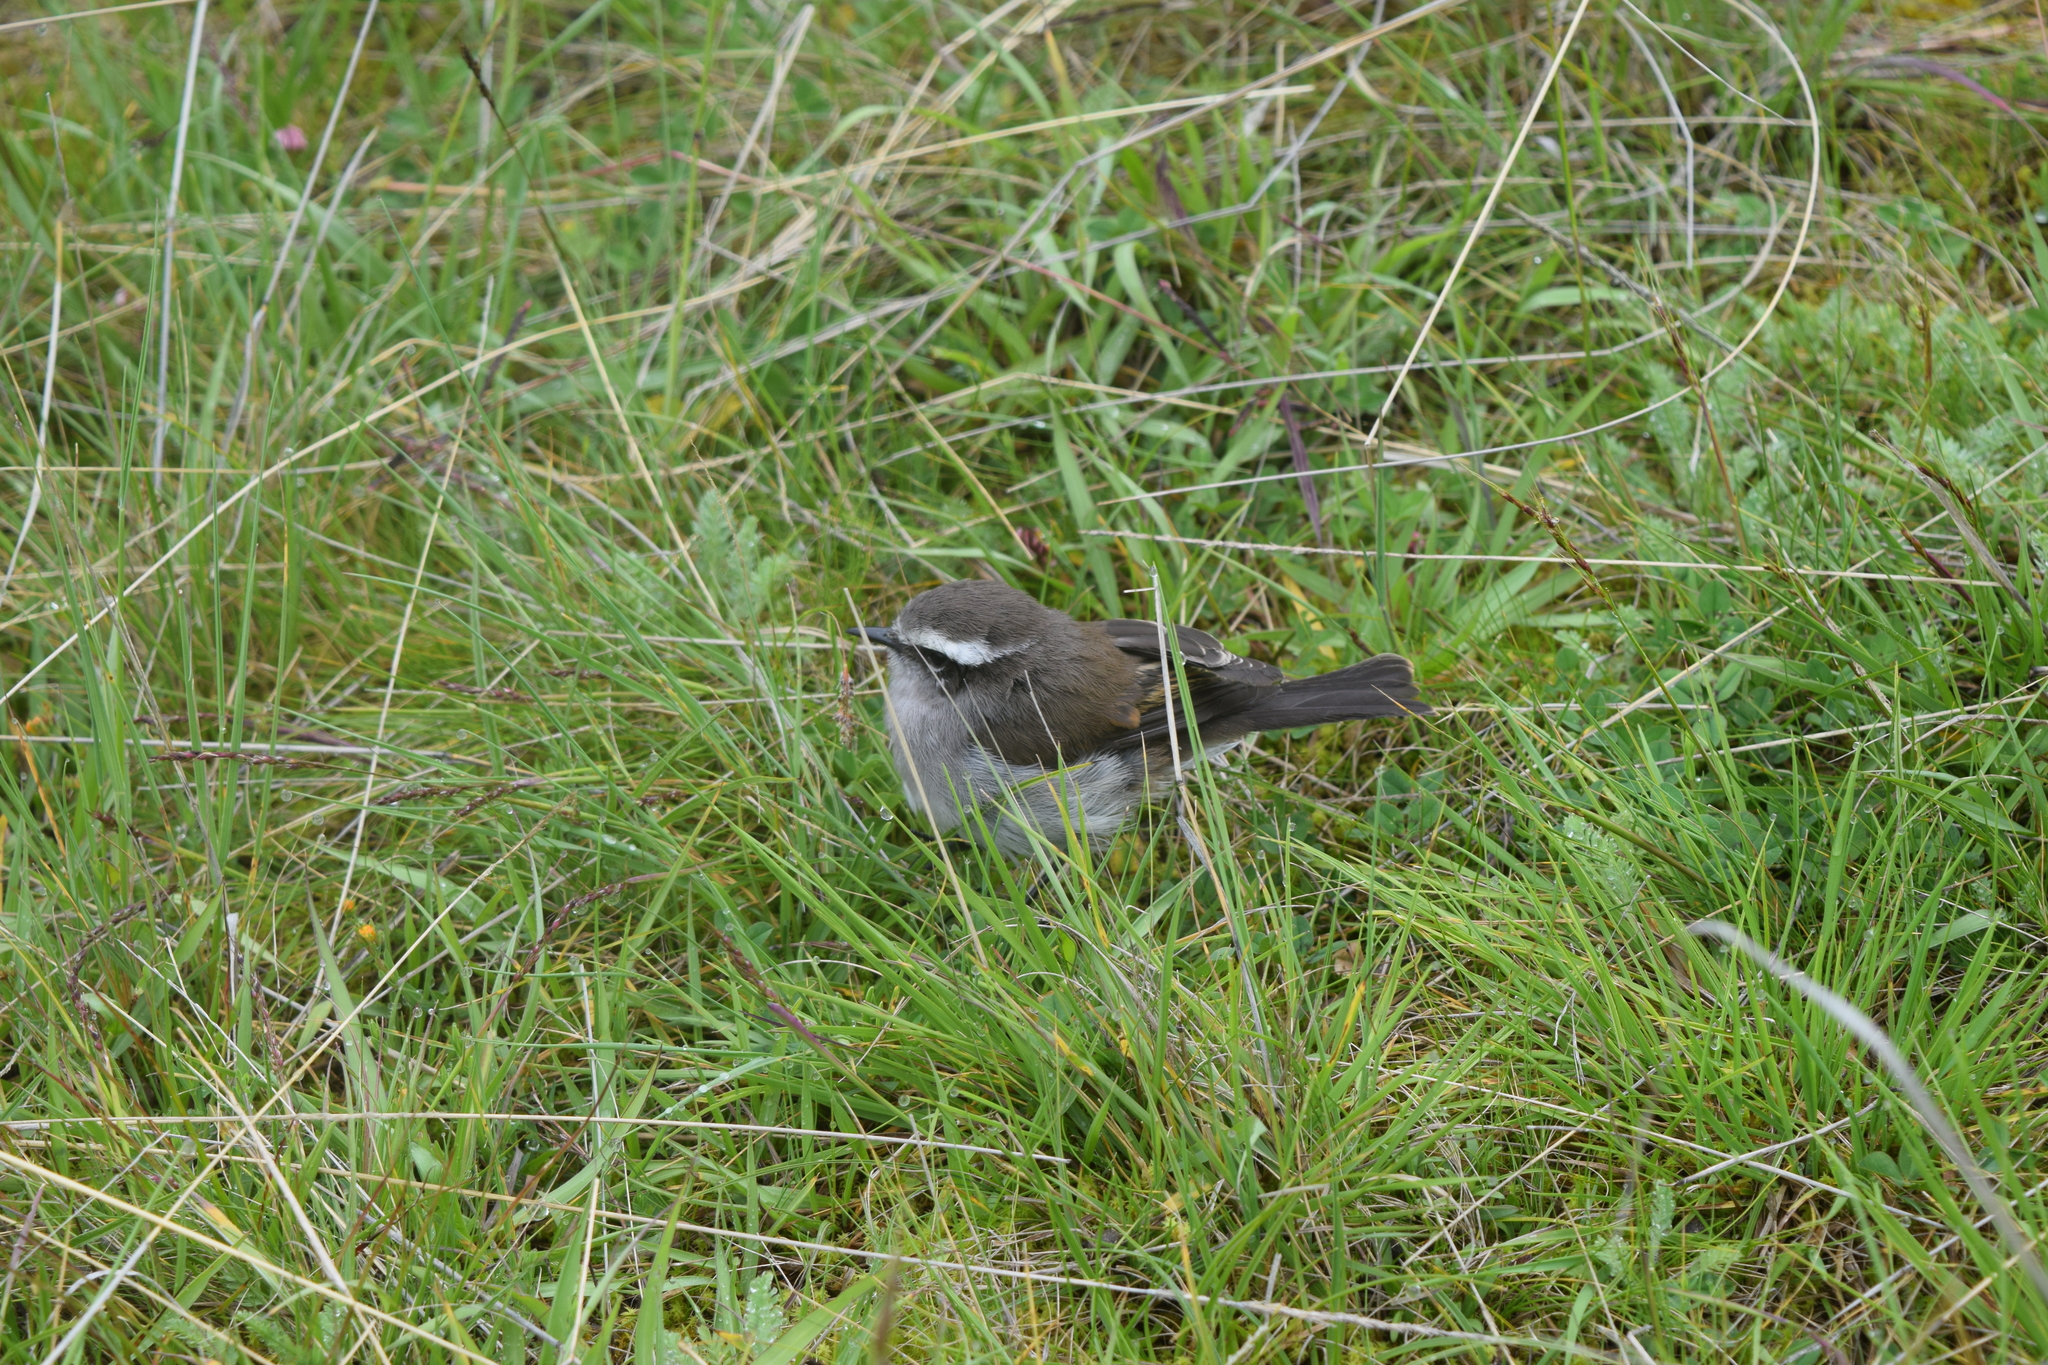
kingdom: Animalia
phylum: Chordata
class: Aves
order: Passeriformes
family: Tyrannidae
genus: Ochthoeca
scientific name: Ochthoeca leucophrys
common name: White-browed chat-tyrant
